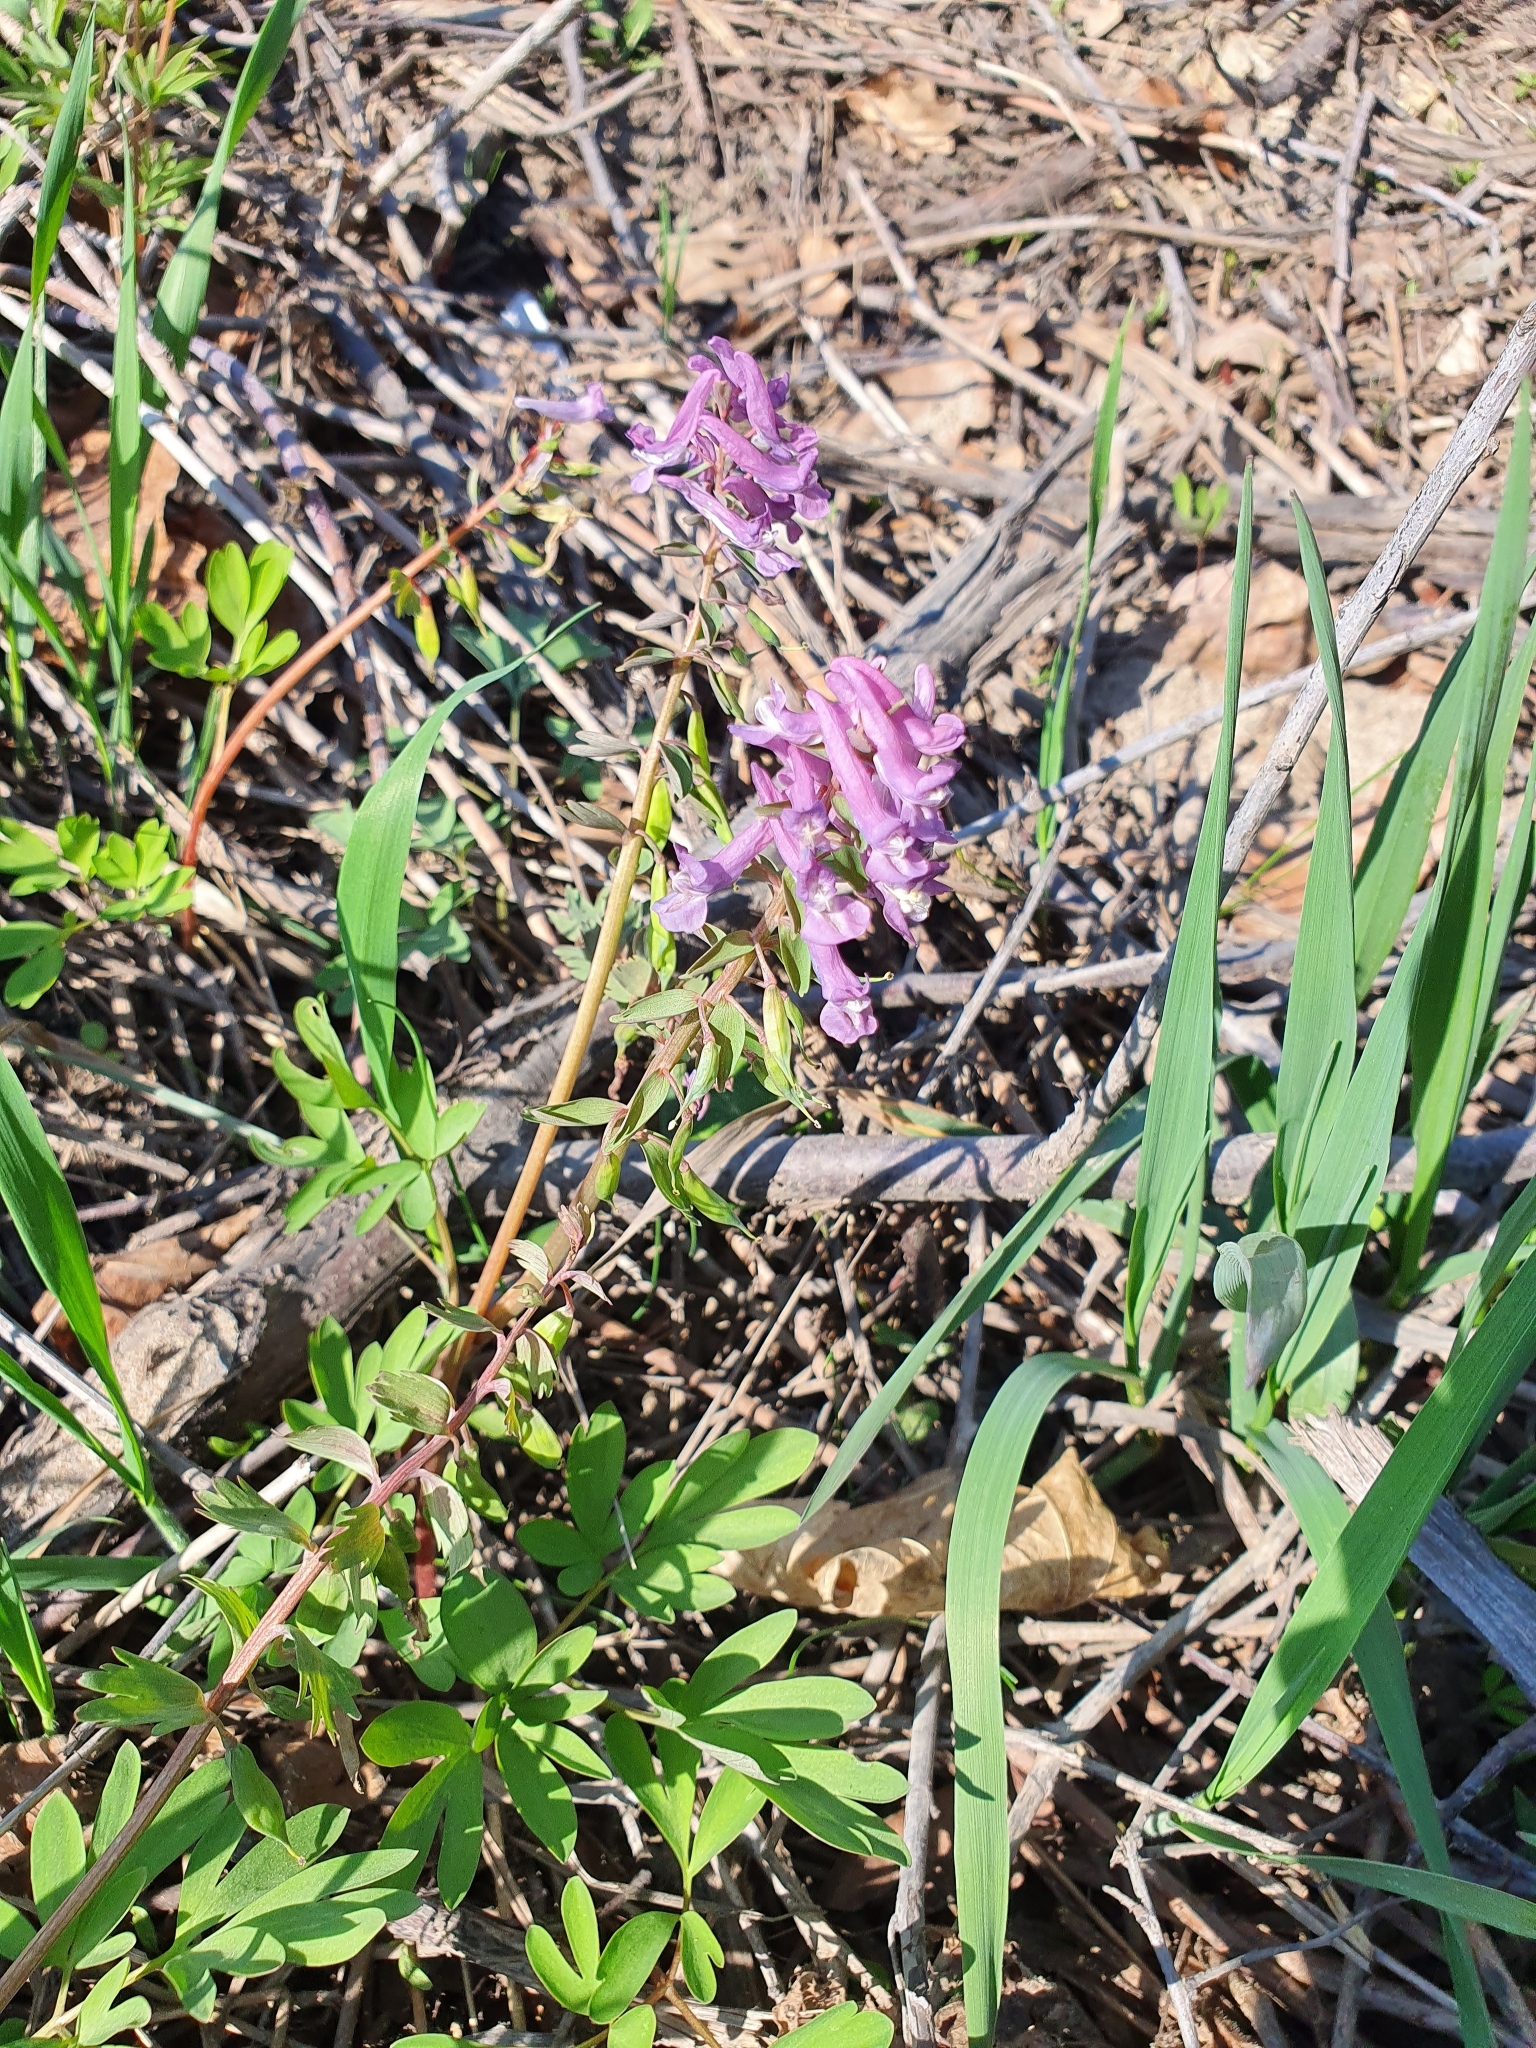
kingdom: Plantae
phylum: Tracheophyta
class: Magnoliopsida
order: Ranunculales
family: Papaveraceae
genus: Corydalis
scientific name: Corydalis solida
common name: Bird-in-a-bush
